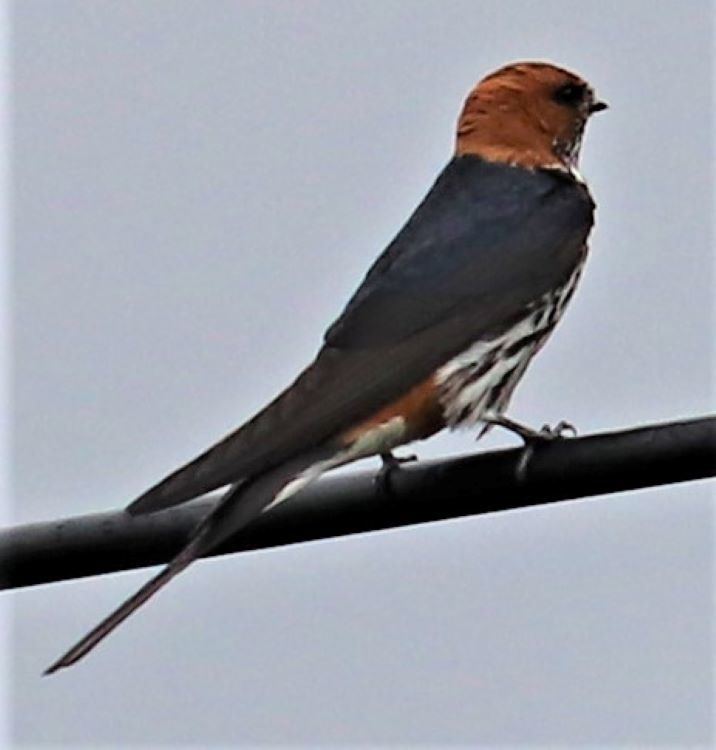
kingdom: Animalia
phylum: Chordata
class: Aves
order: Passeriformes
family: Hirundinidae
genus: Cecropis
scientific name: Cecropis abyssinica
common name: Lesser striped-swallow
